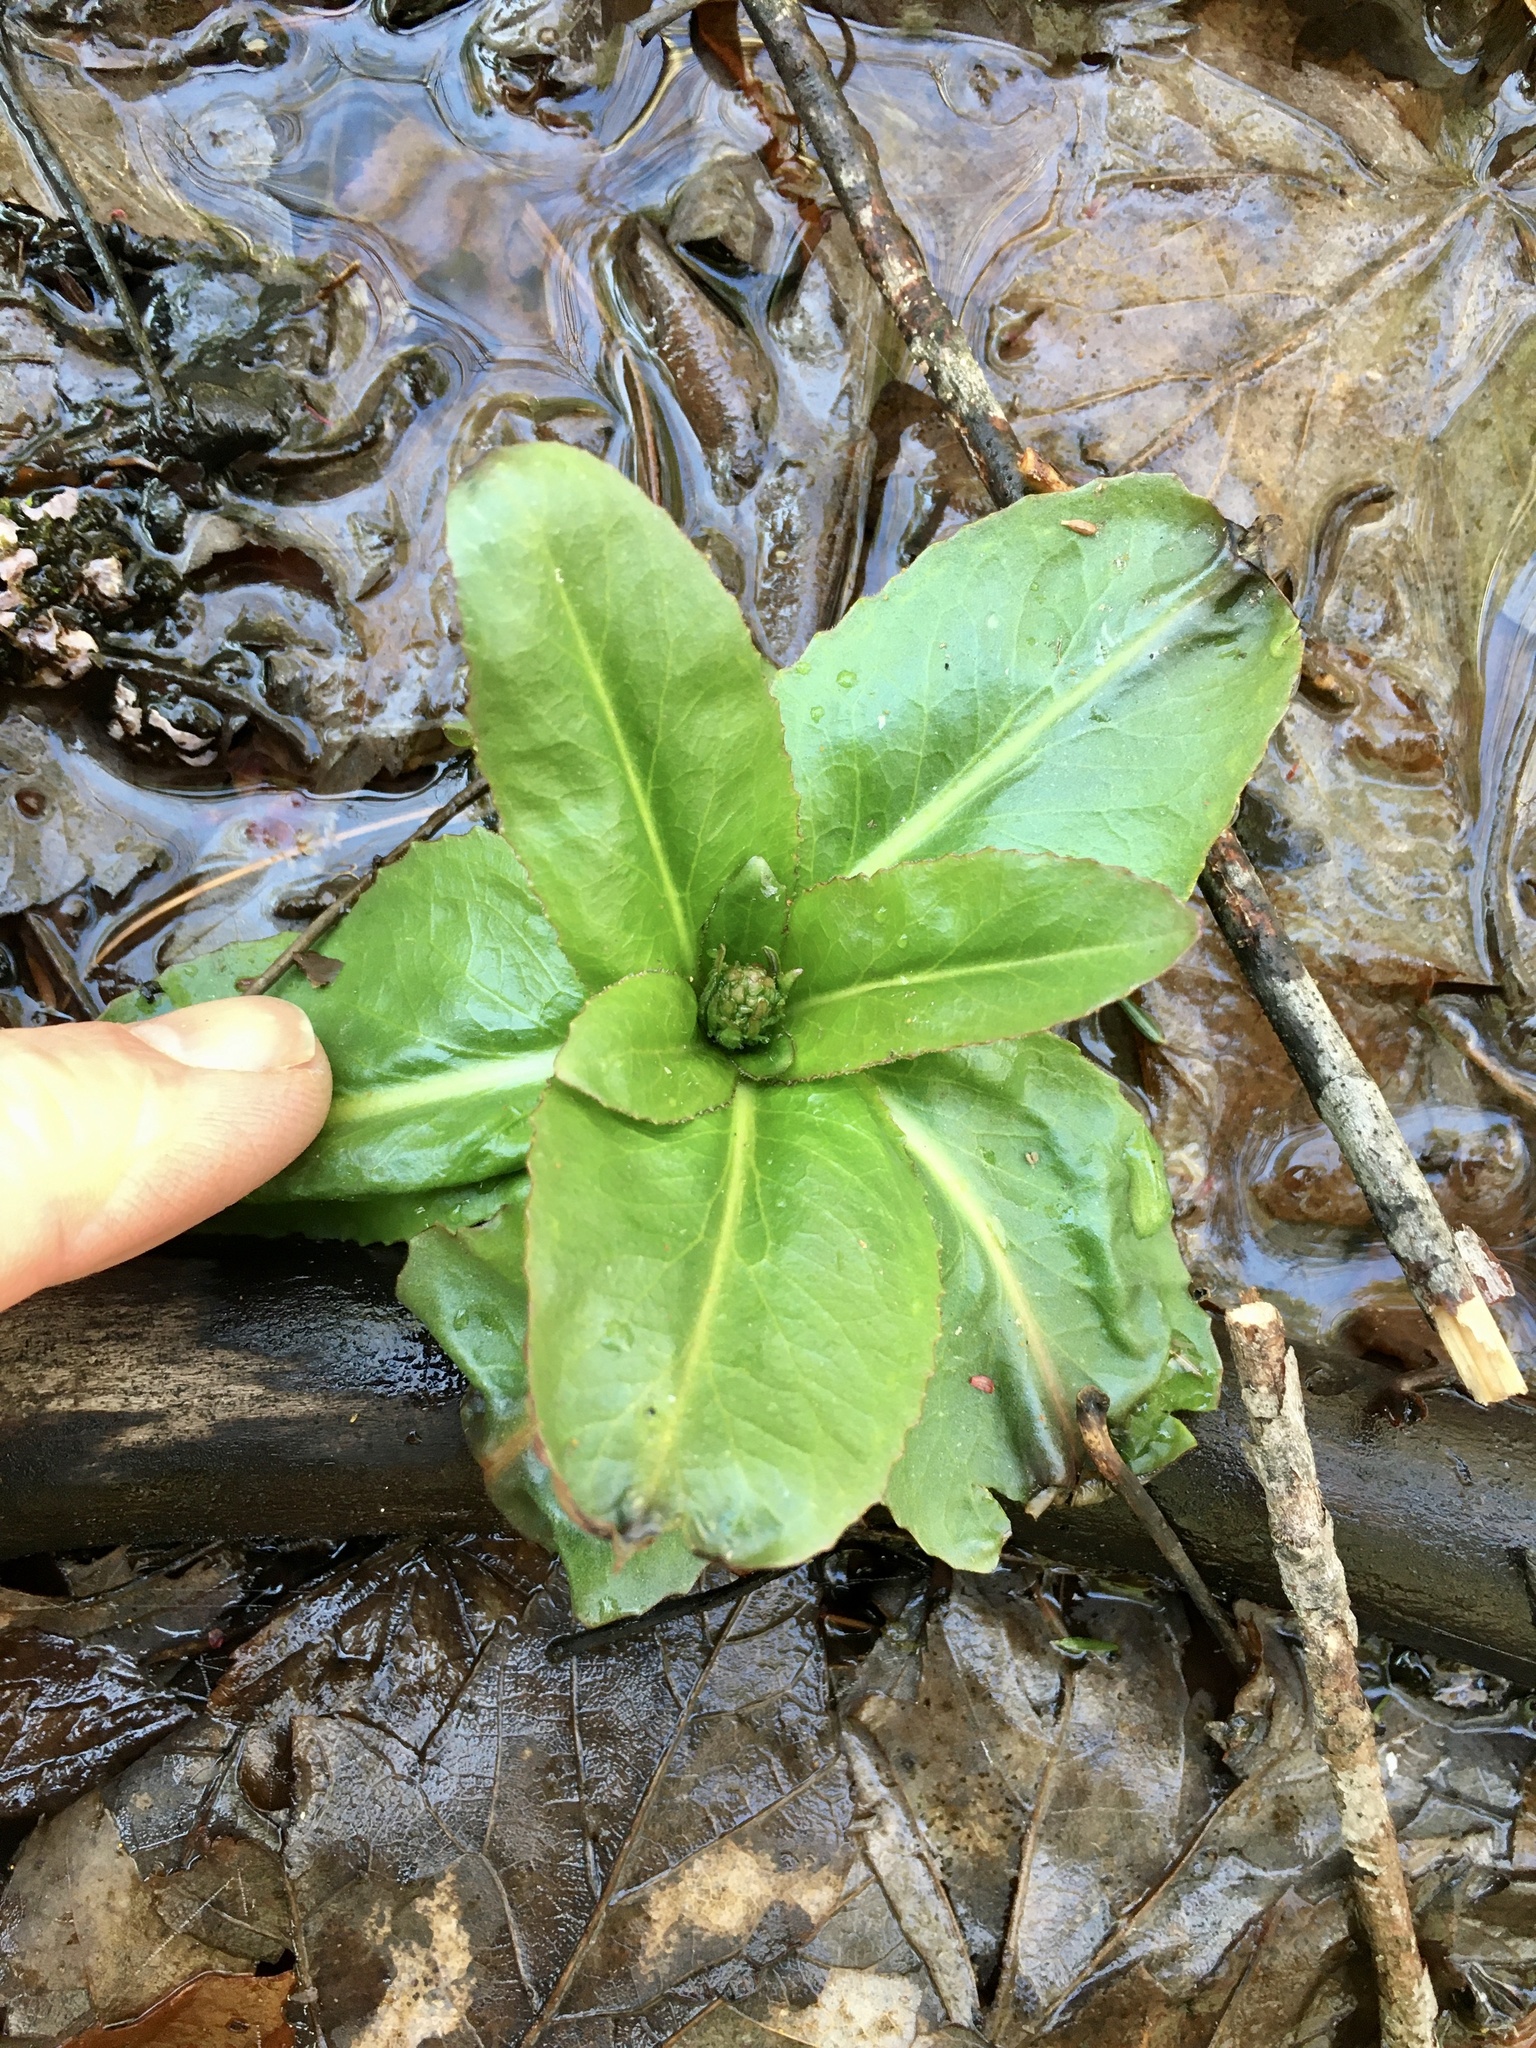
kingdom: Plantae
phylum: Tracheophyta
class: Magnoliopsida
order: Saxifragales
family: Saxifragaceae
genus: Micranthes
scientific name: Micranthes pensylvanica
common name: Marsh saxifrage
